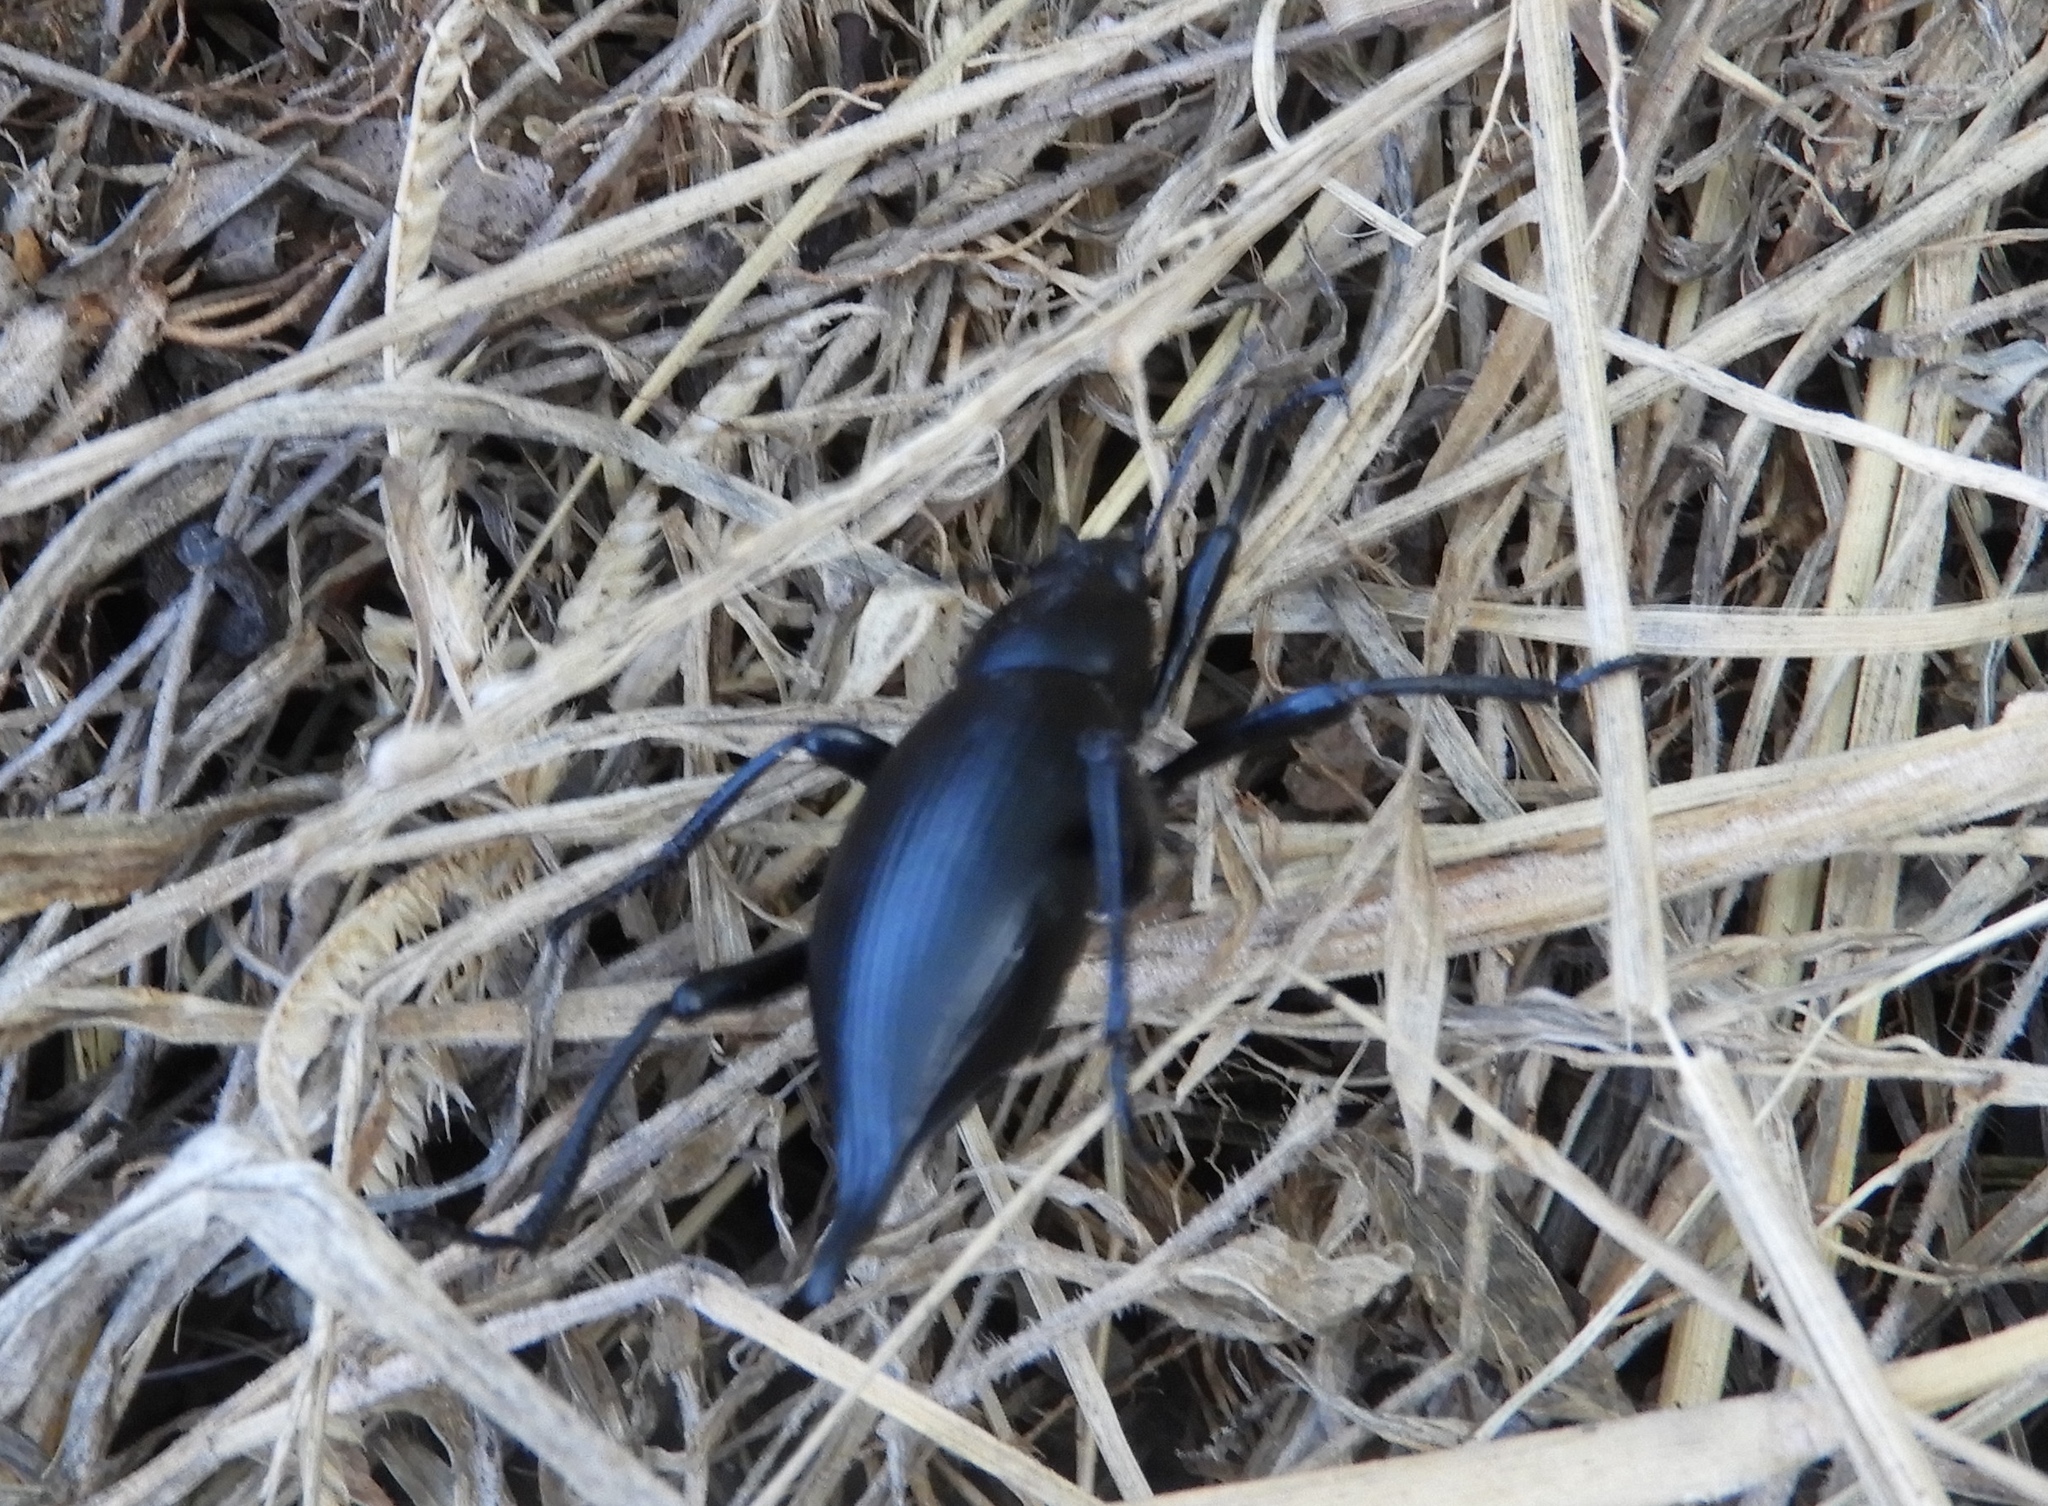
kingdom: Animalia
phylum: Arthropoda
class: Insecta
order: Coleoptera
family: Tenebrionidae
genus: Eleodes
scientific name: Eleodes eschscholtzii
